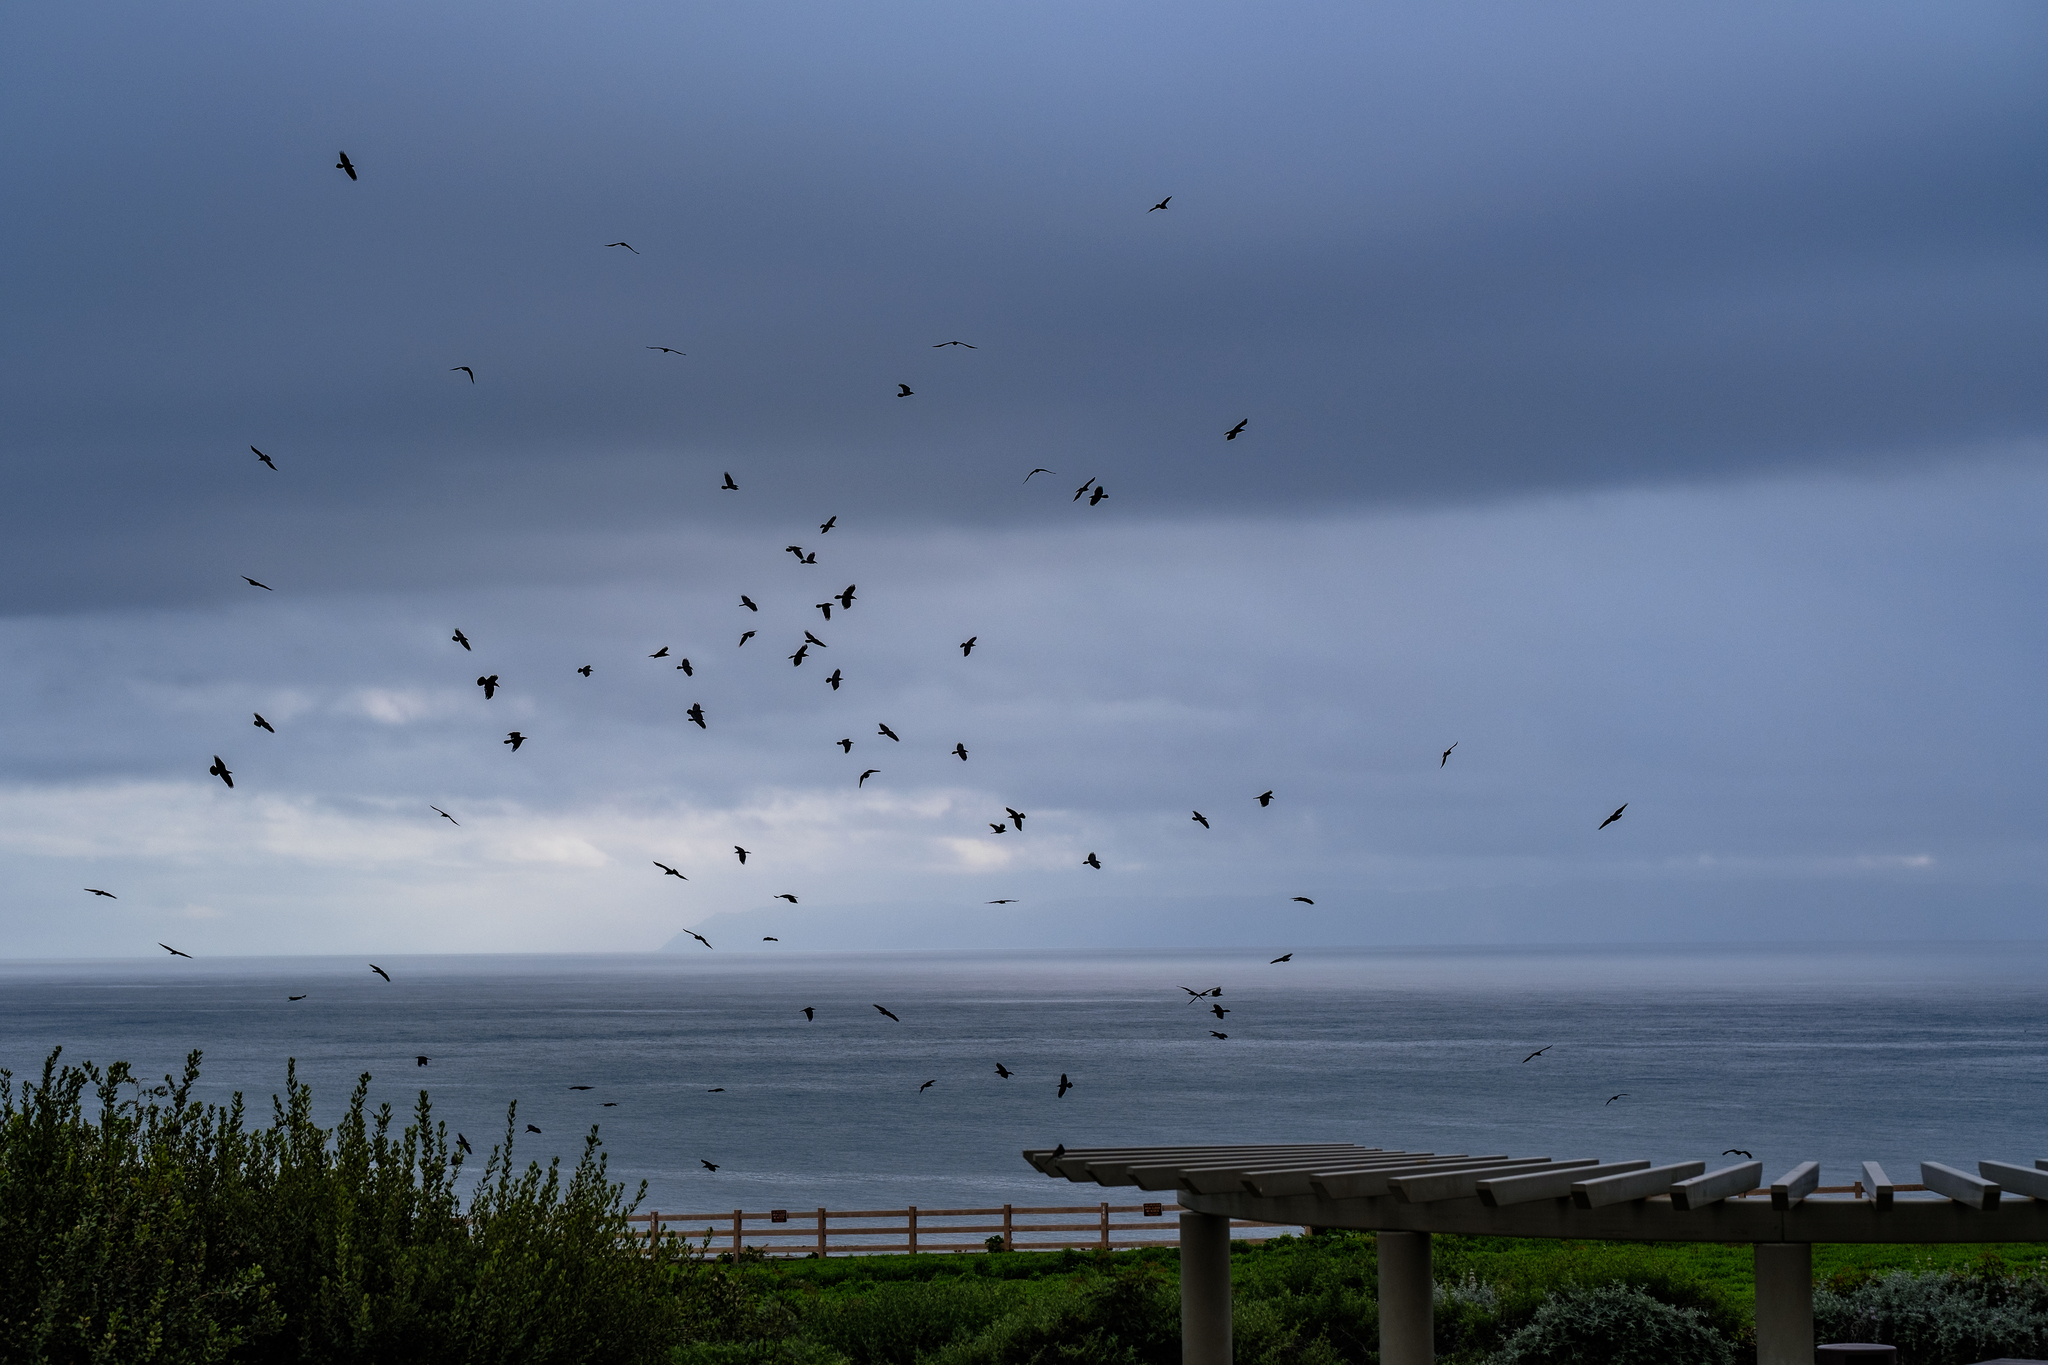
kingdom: Animalia
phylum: Chordata
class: Aves
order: Passeriformes
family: Corvidae
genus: Corvus
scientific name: Corvus corax
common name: Common raven
